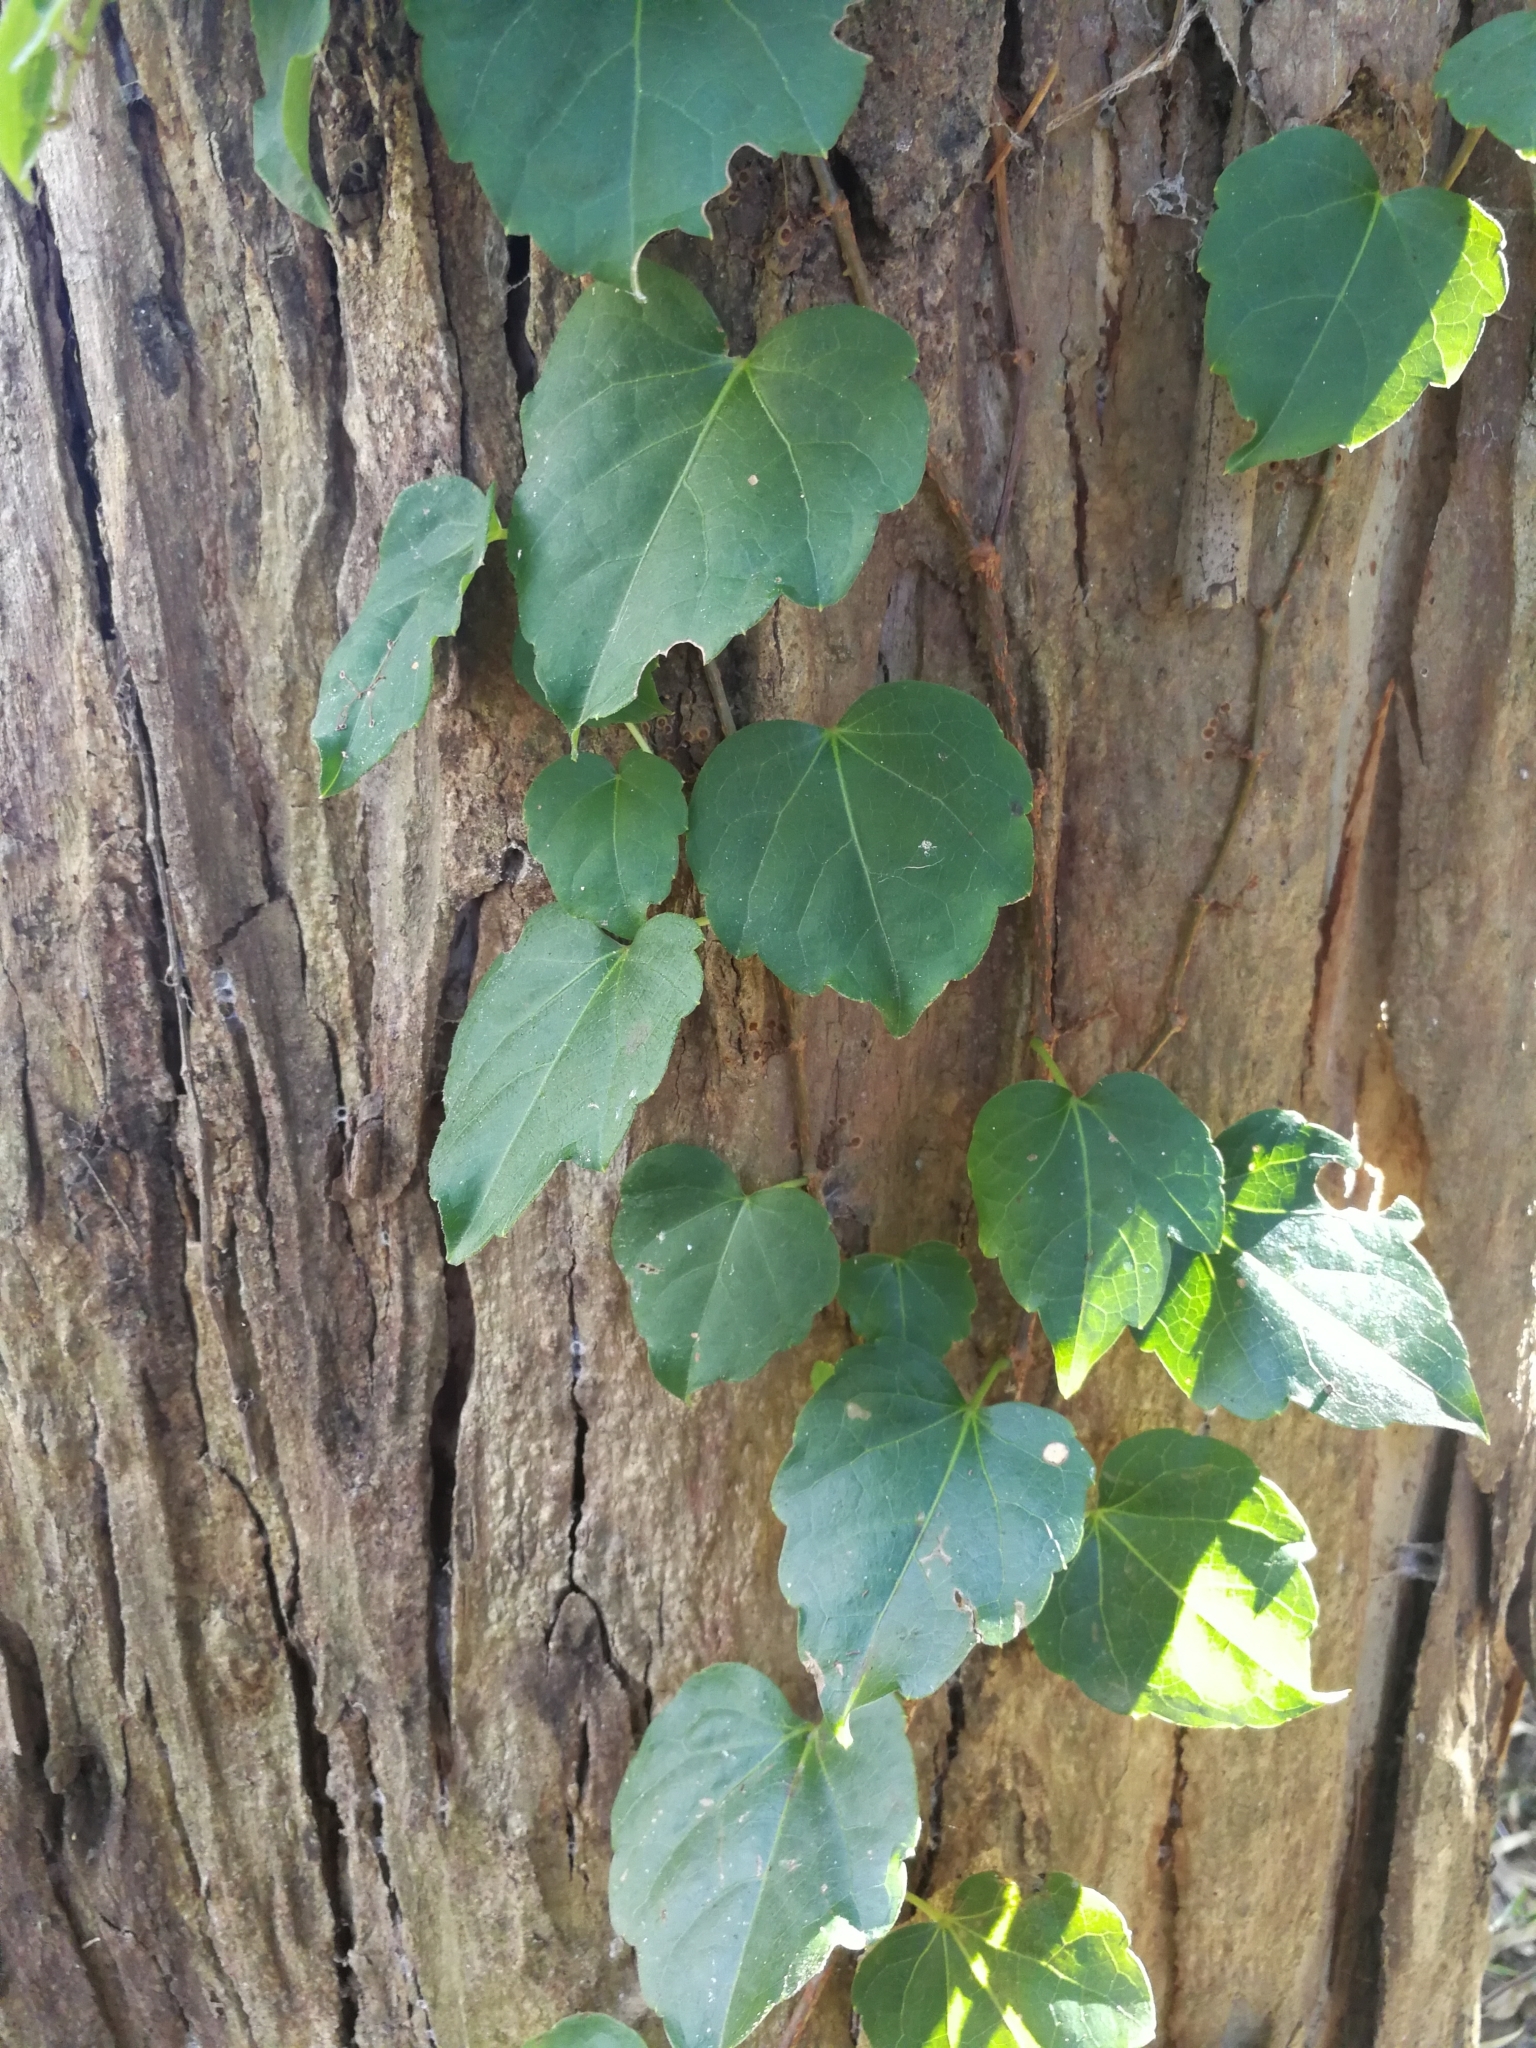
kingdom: Plantae
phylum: Tracheophyta
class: Magnoliopsida
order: Vitales
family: Vitaceae
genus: Parthenocissus
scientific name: Parthenocissus tricuspidata
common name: Boston ivy
